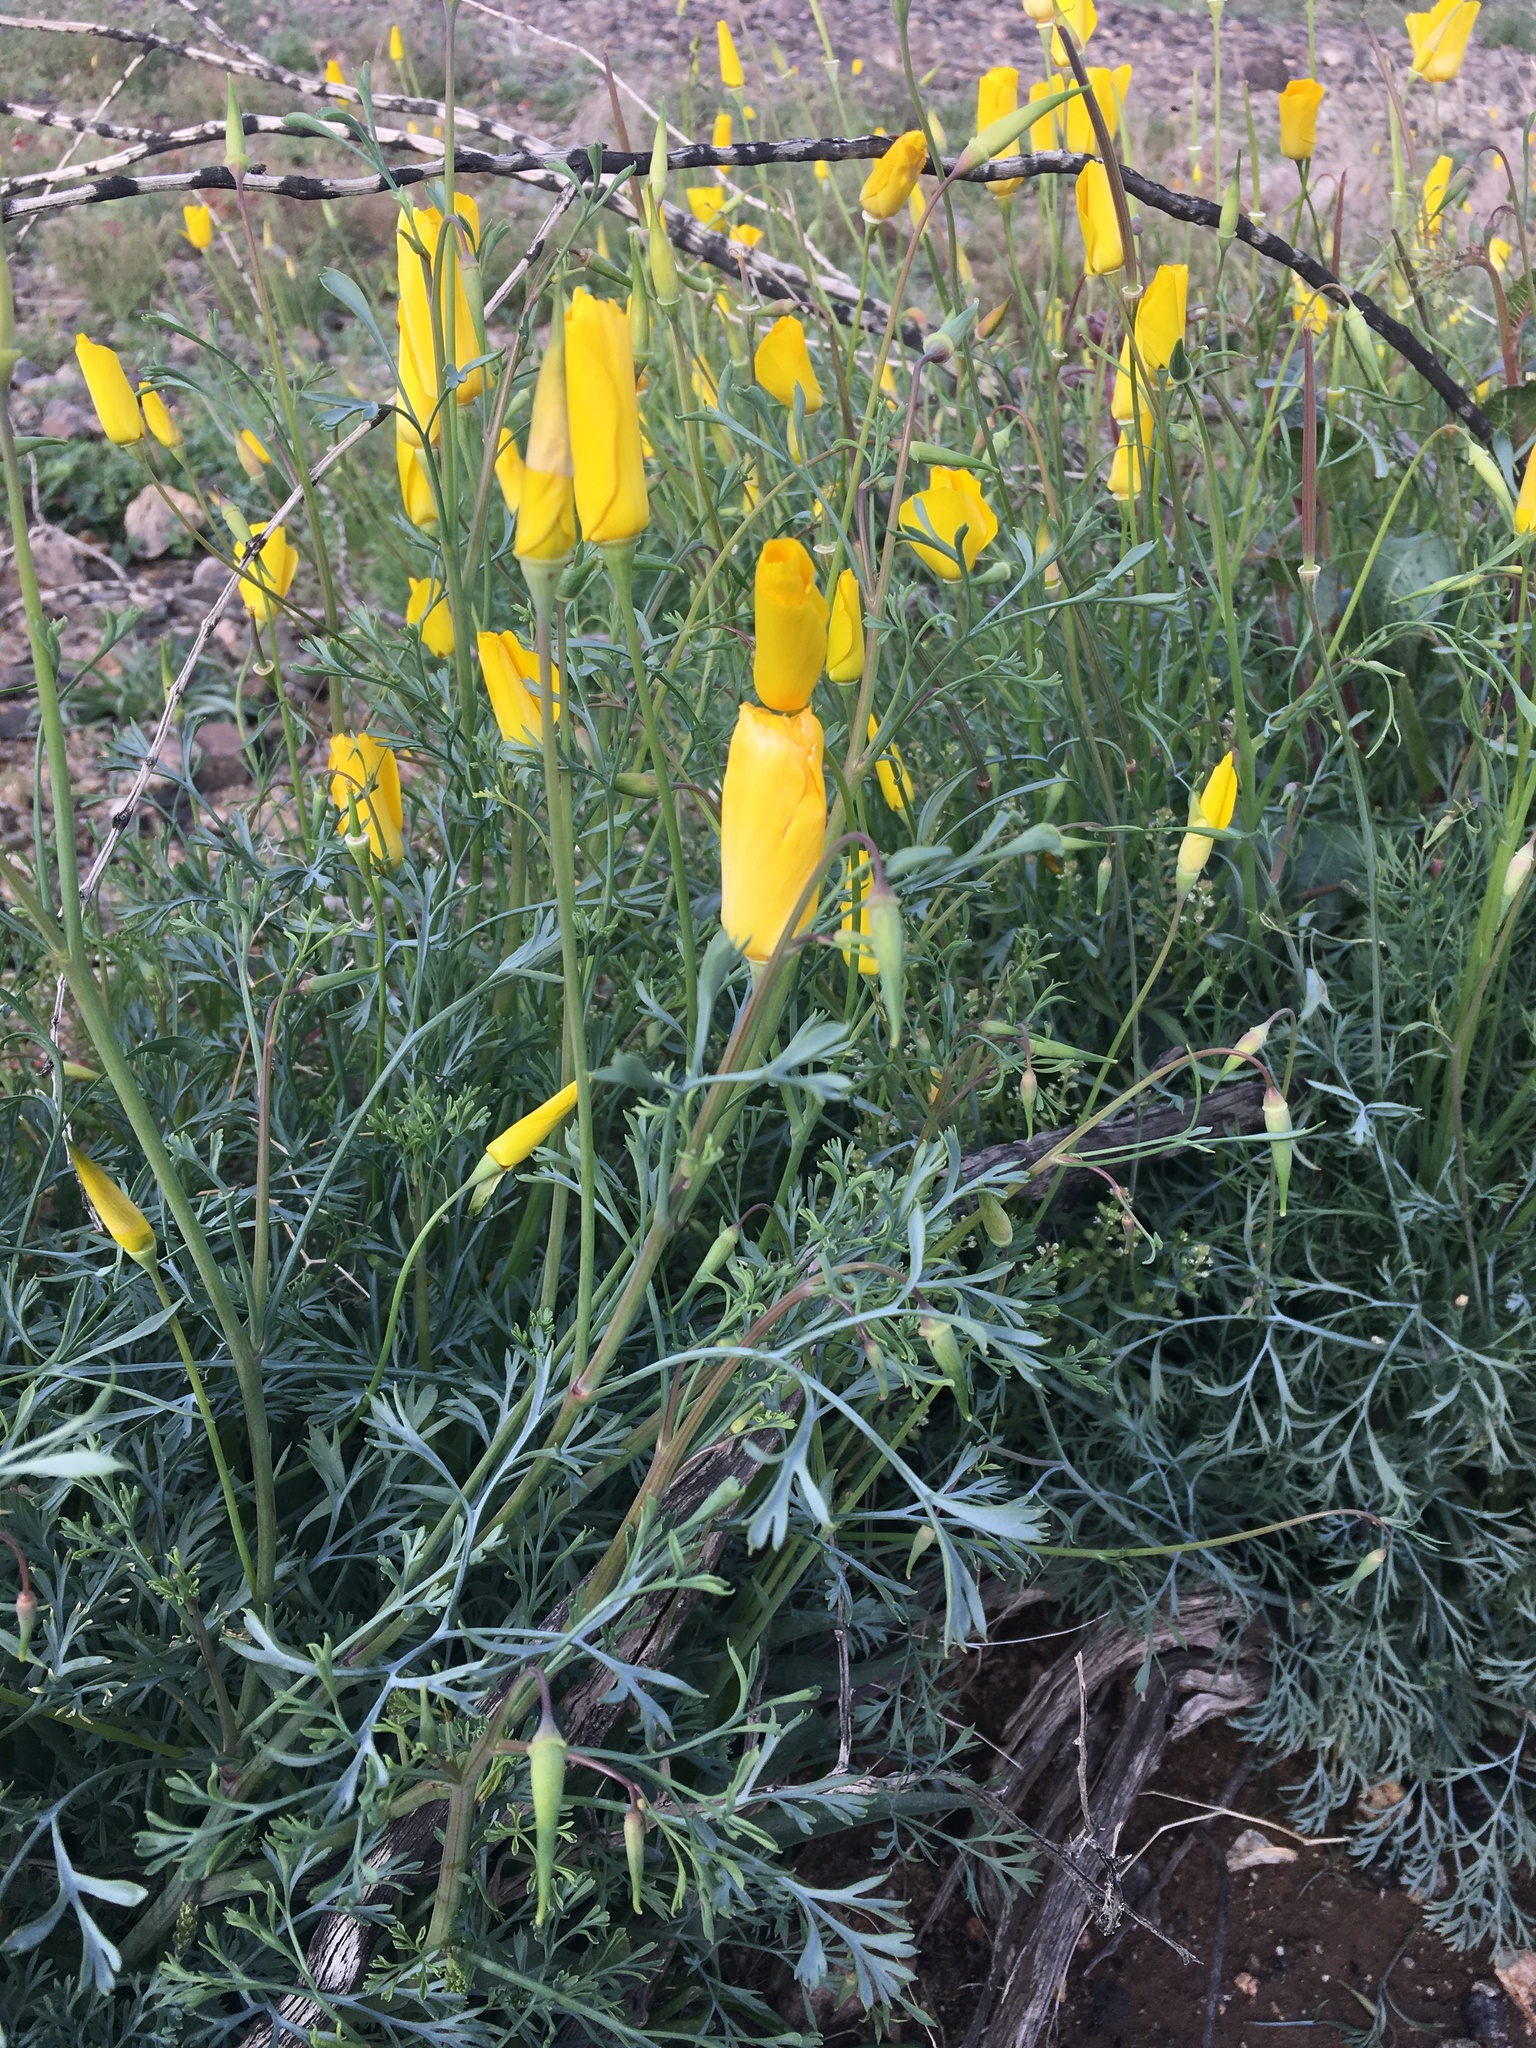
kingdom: Plantae
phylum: Tracheophyta
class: Magnoliopsida
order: Ranunculales
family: Papaveraceae
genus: Eschscholzia
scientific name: Eschscholzia papastillii
